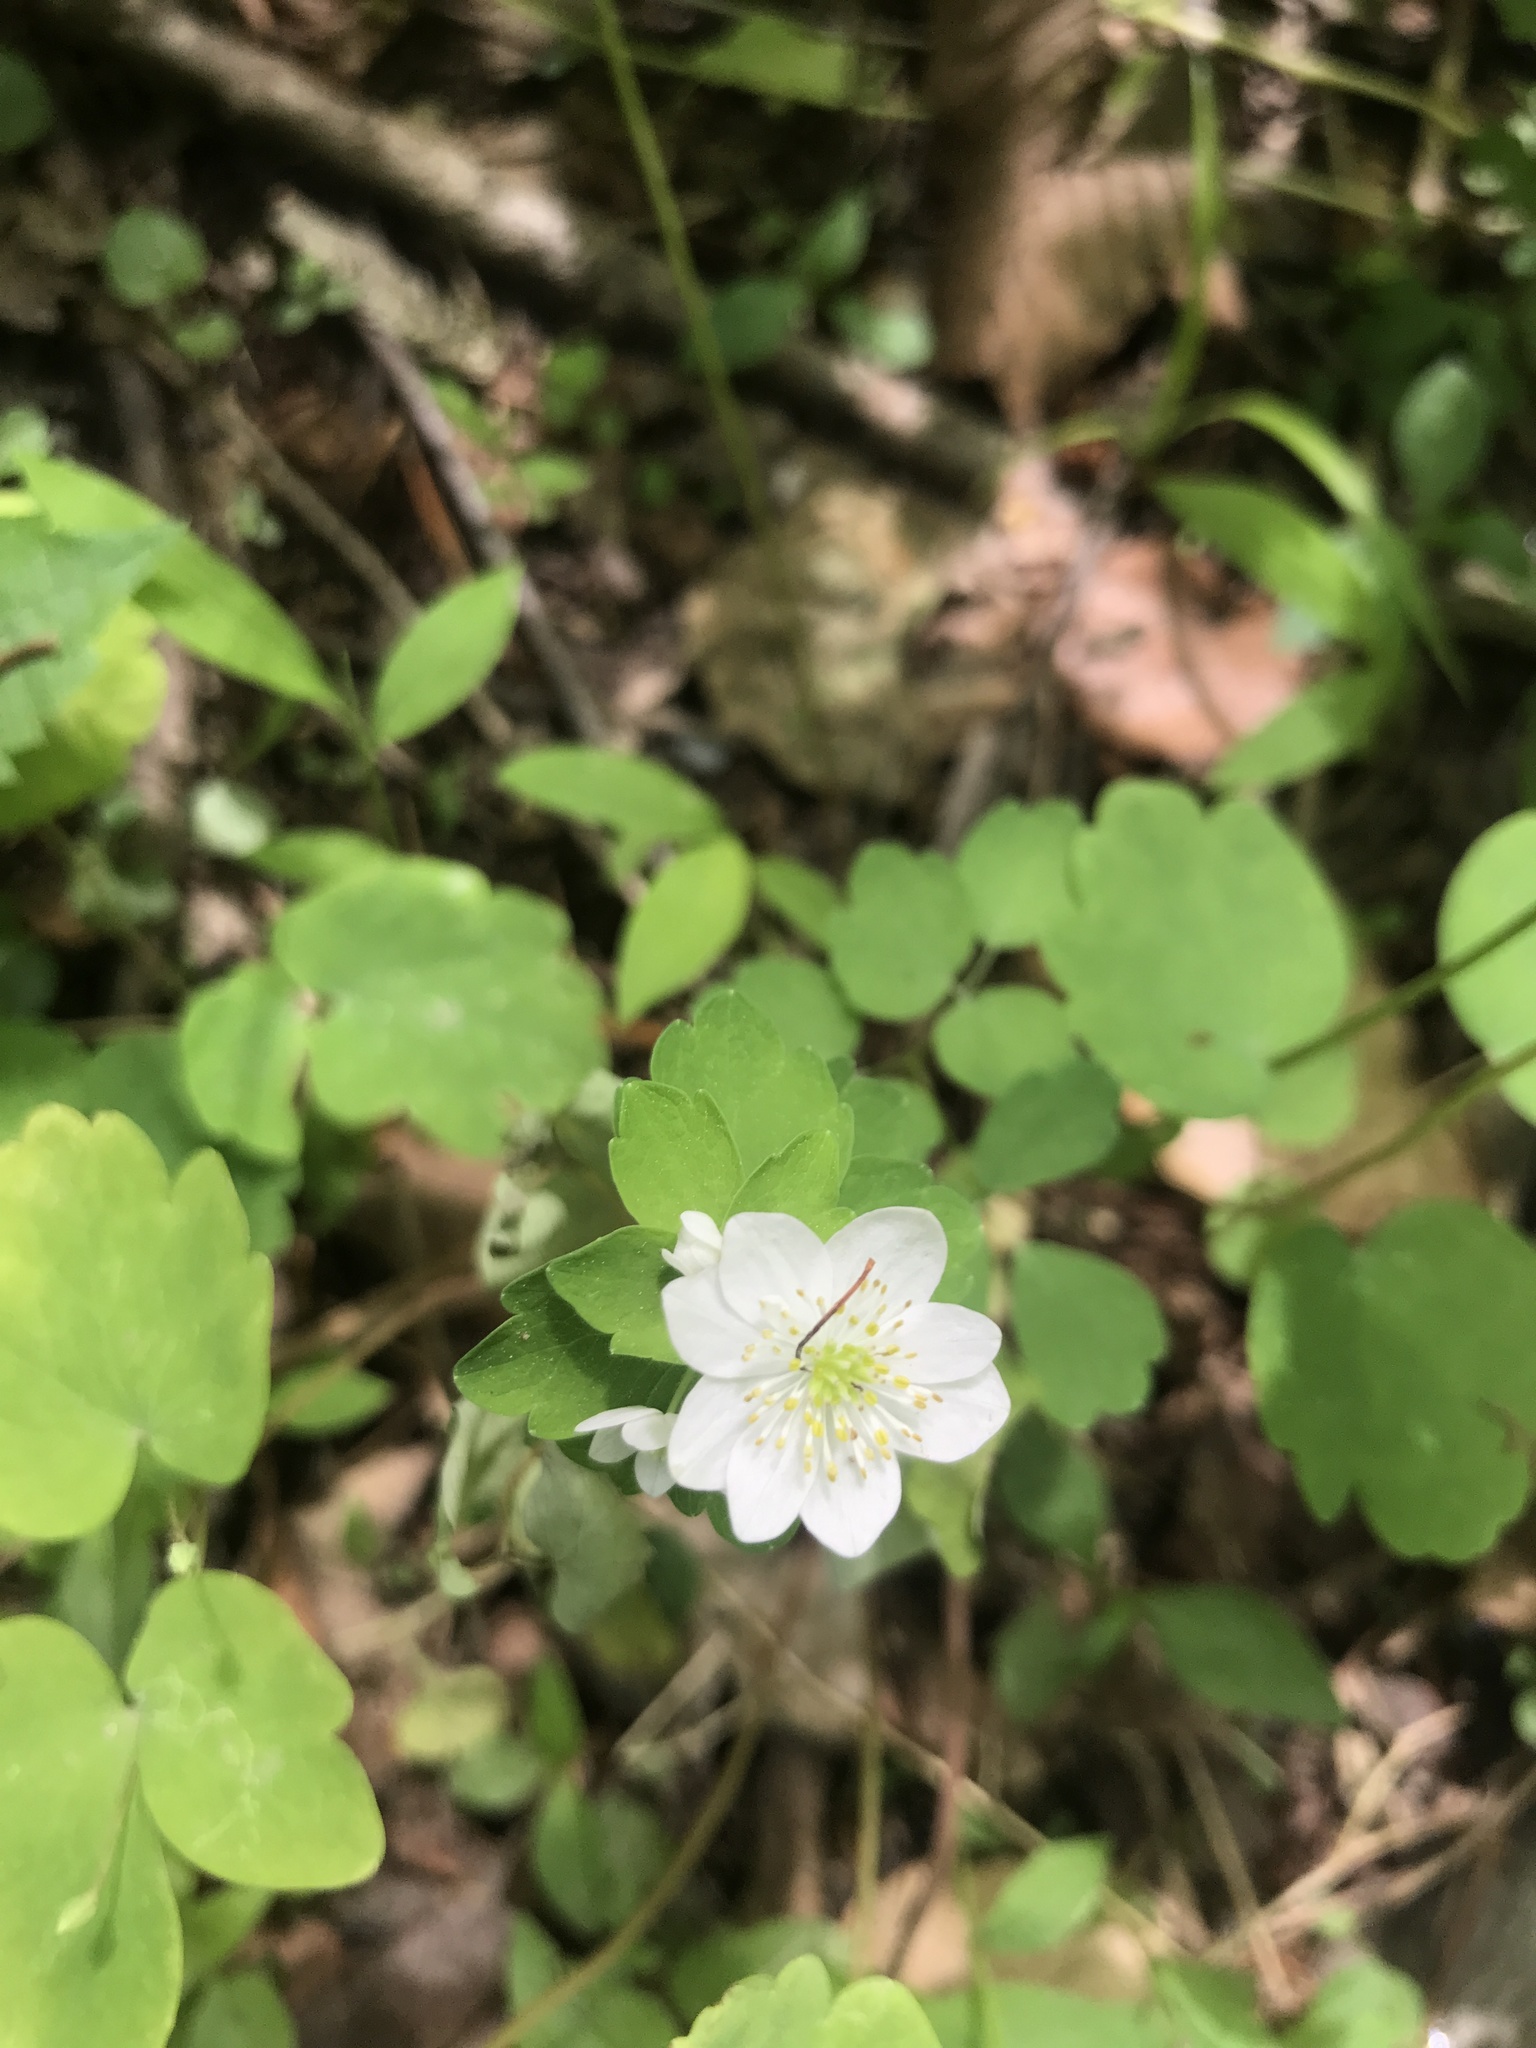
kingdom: Plantae
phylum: Tracheophyta
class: Magnoliopsida
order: Ranunculales
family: Ranunculaceae
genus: Thalictrum
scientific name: Thalictrum thalictroides
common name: Rue-anemone
